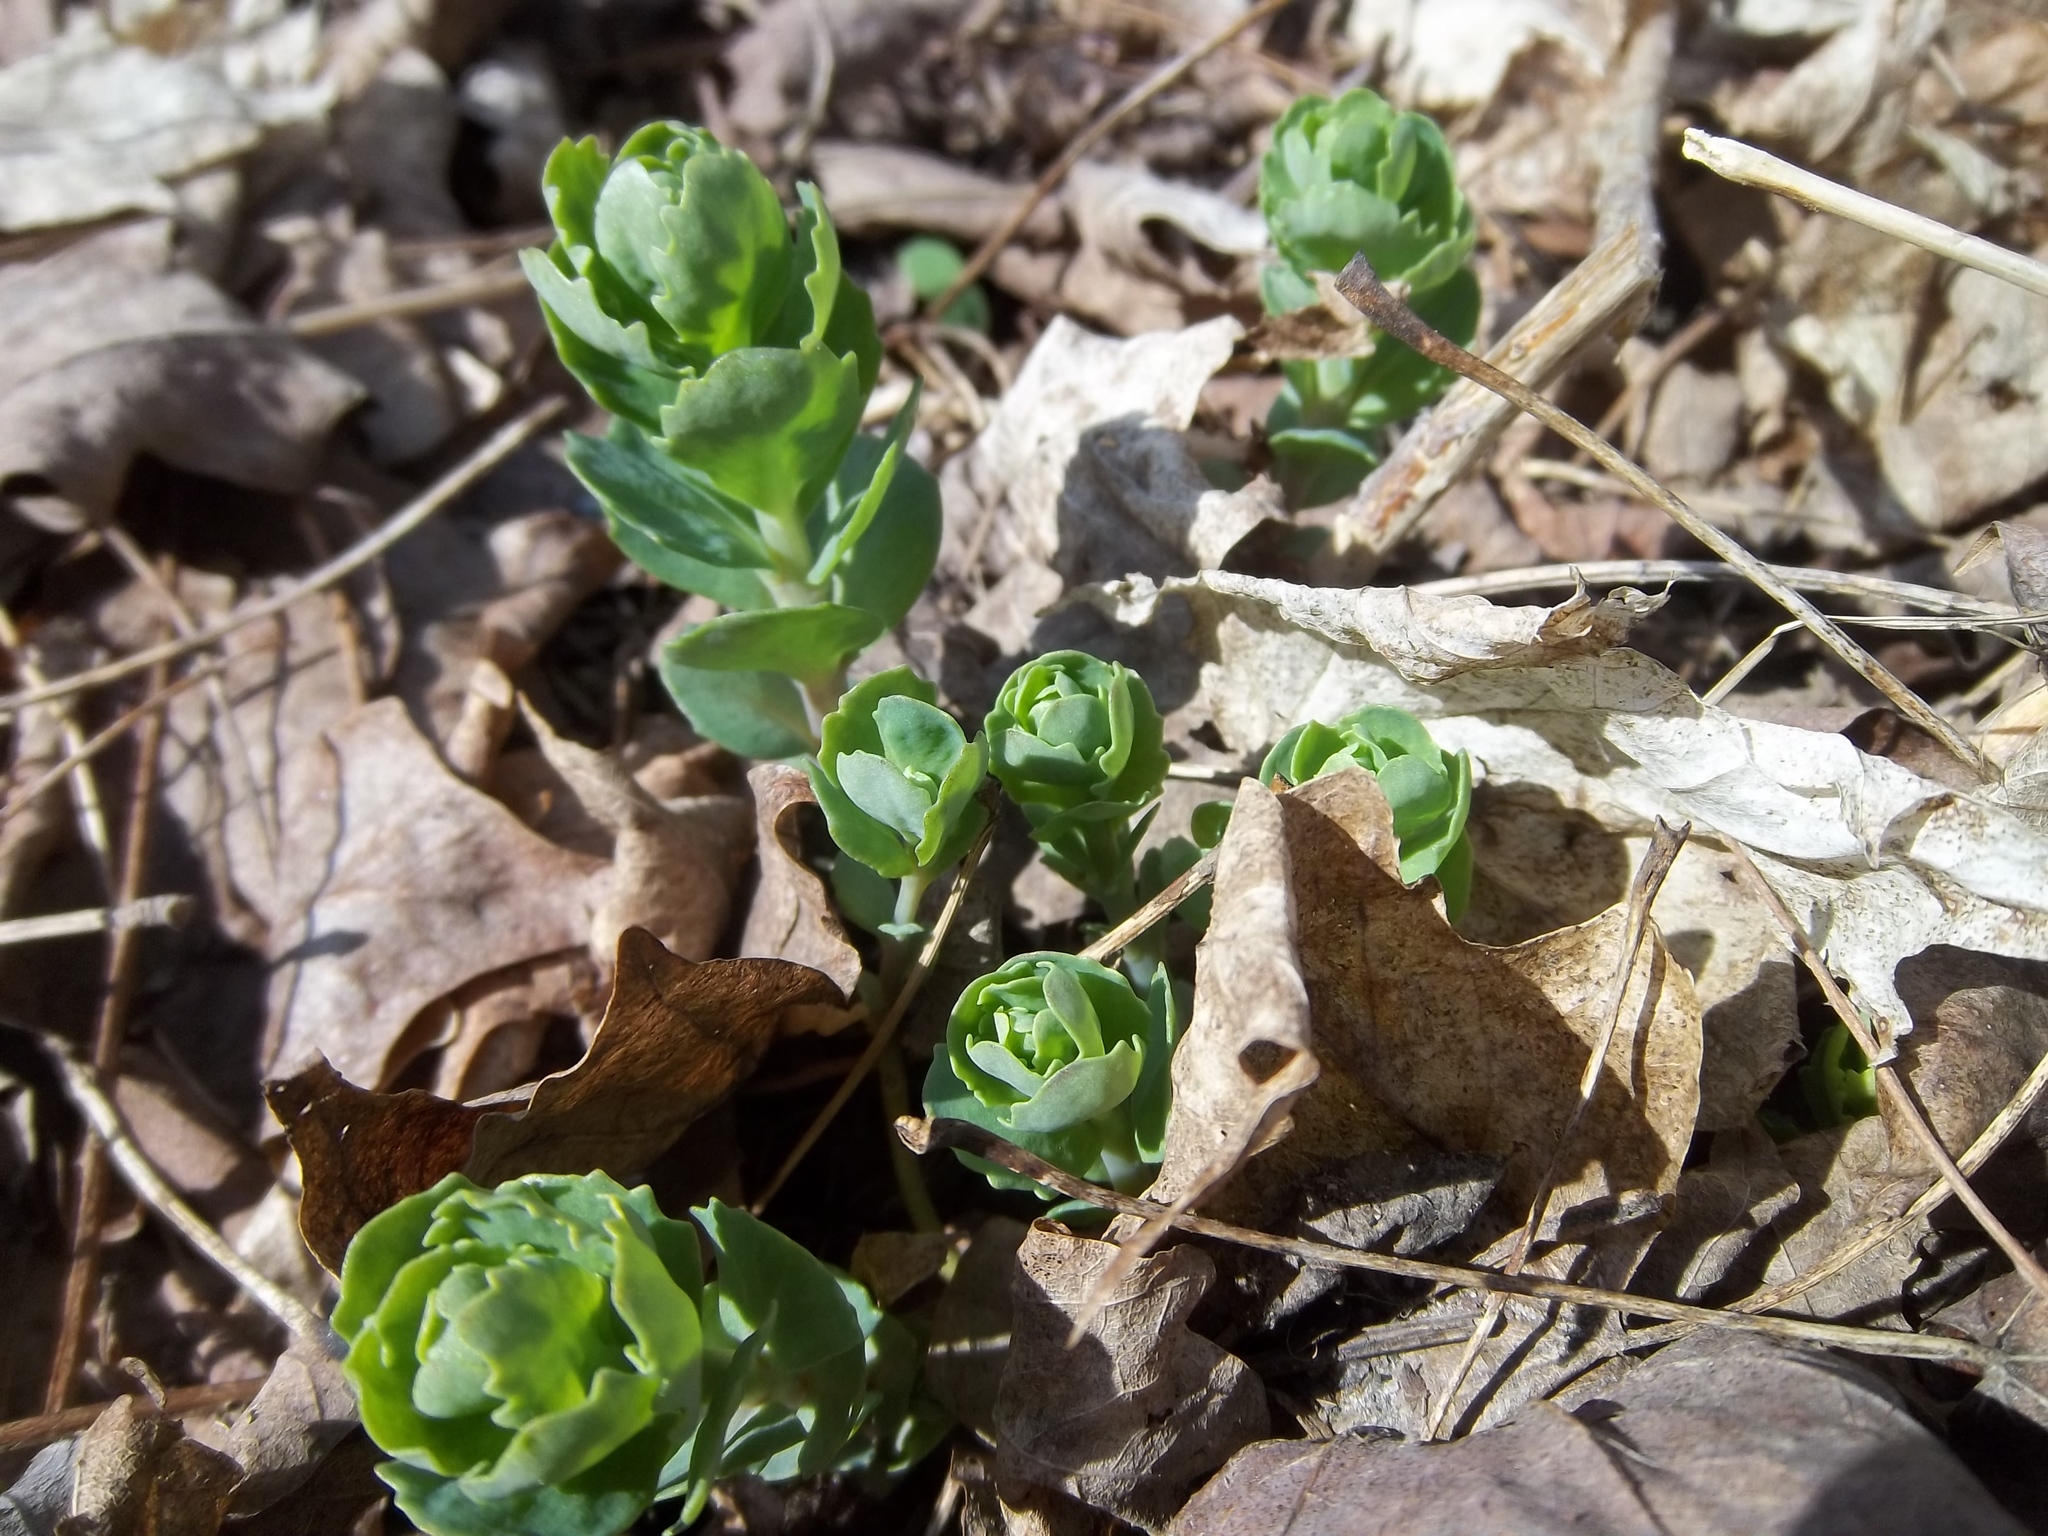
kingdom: Plantae
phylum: Tracheophyta
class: Magnoliopsida
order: Saxifragales
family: Crassulaceae
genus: Hylotelephium
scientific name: Hylotelephium telephium
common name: Live-forever
